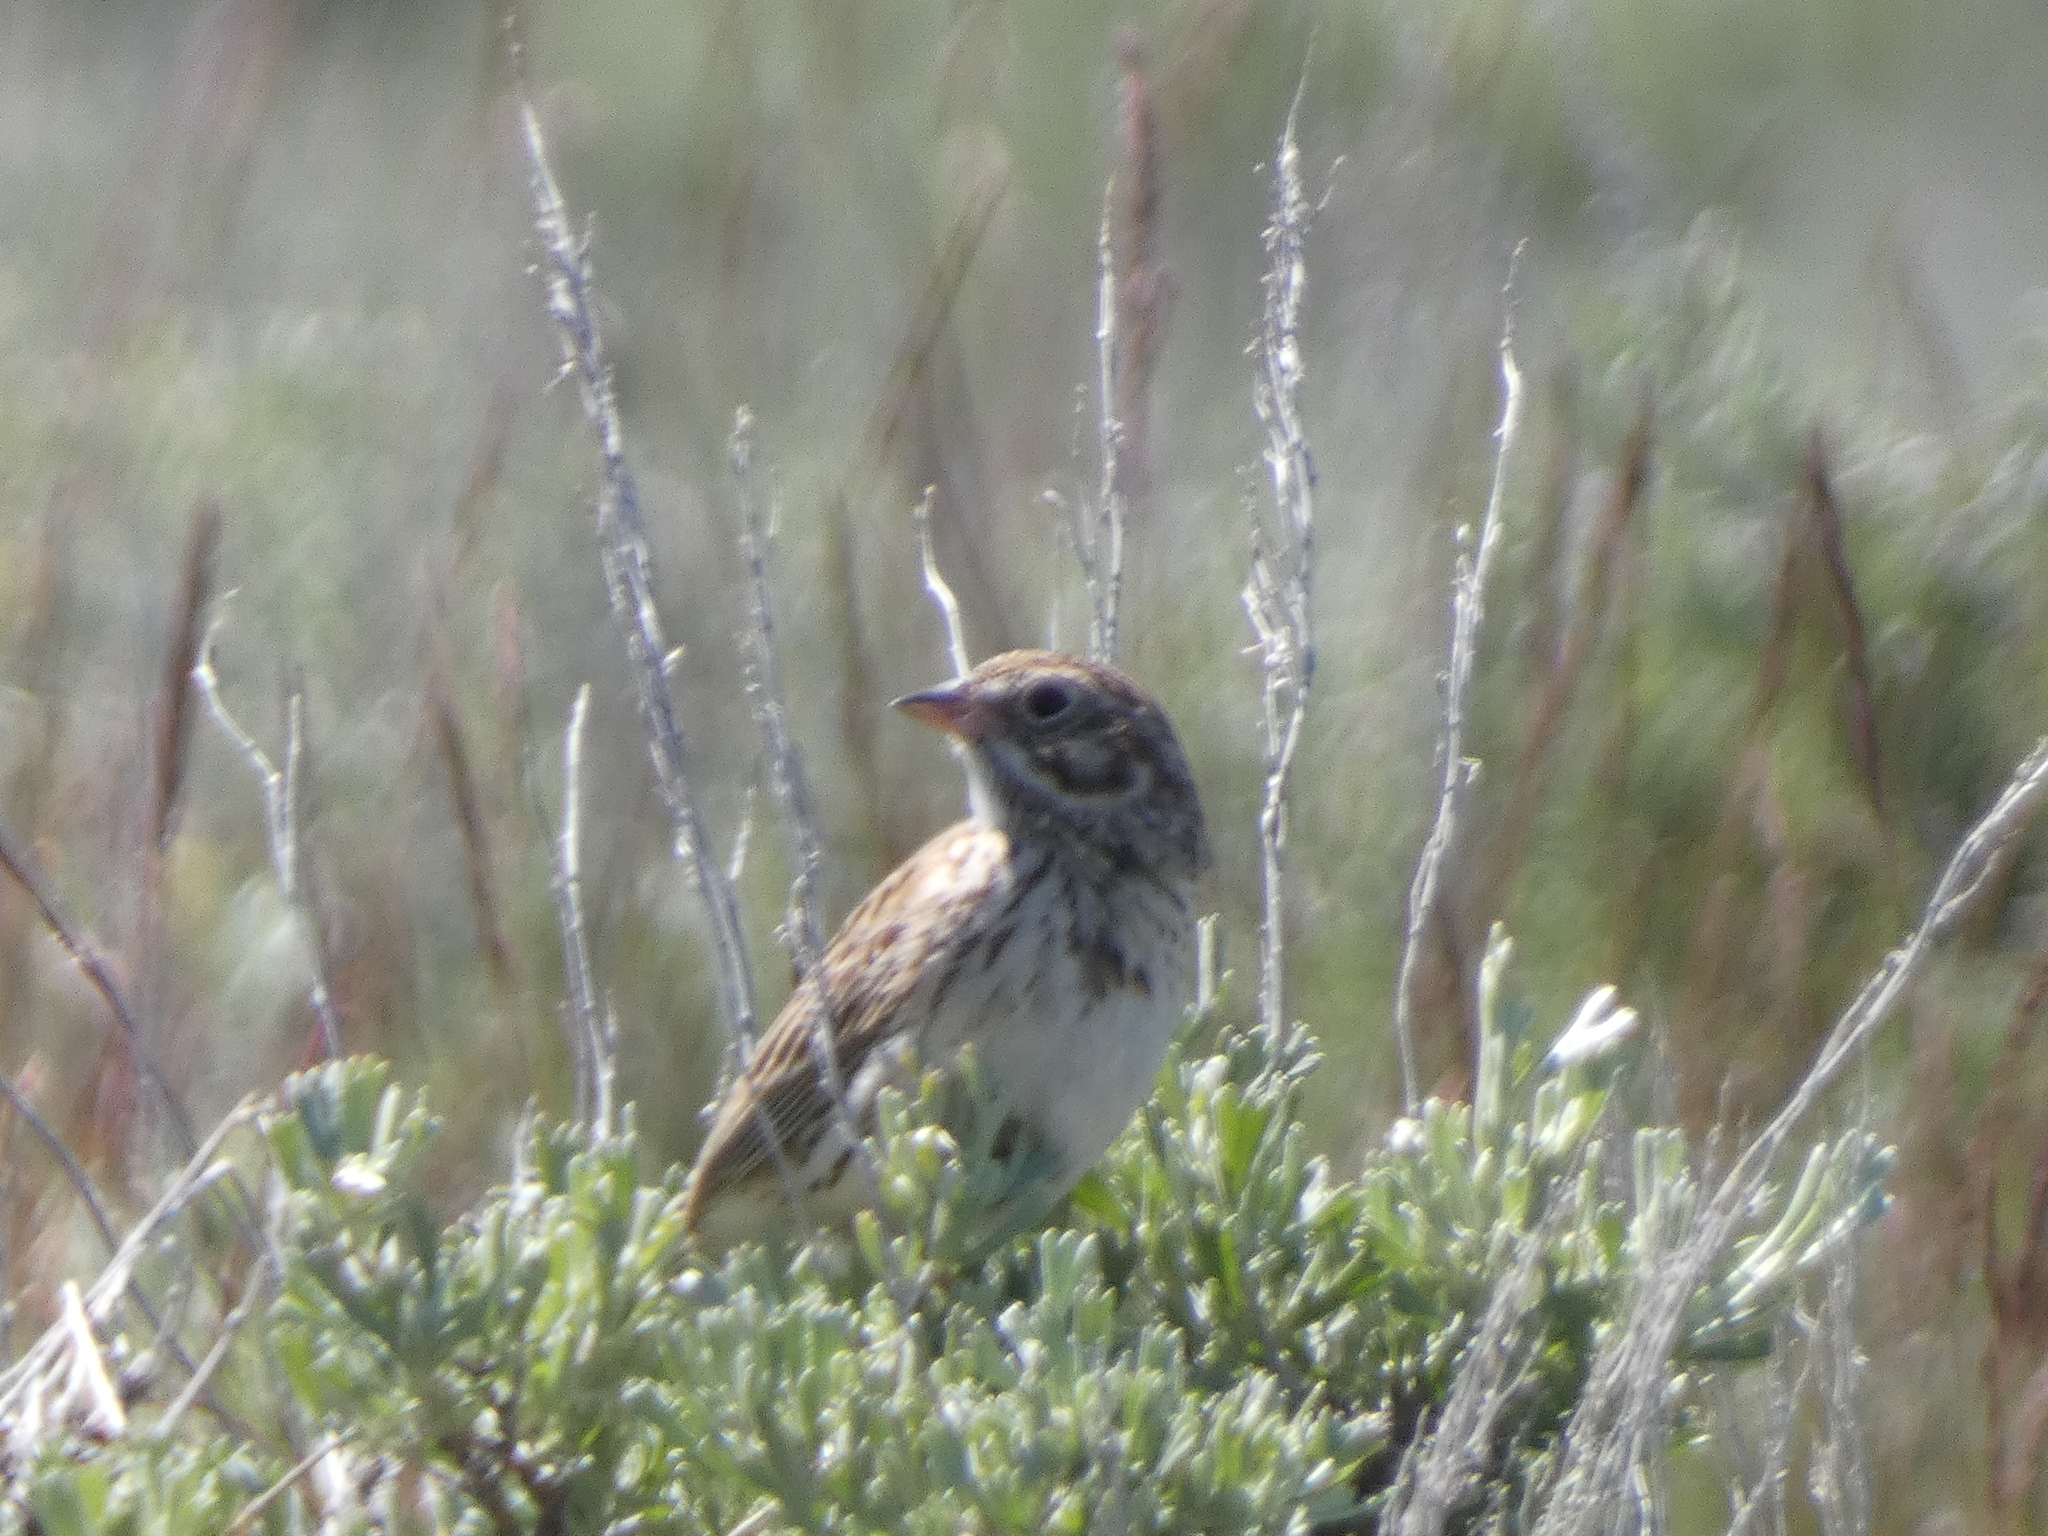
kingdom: Animalia
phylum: Chordata
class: Aves
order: Passeriformes
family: Passerellidae
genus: Pooecetes
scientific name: Pooecetes gramineus
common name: Vesper sparrow
